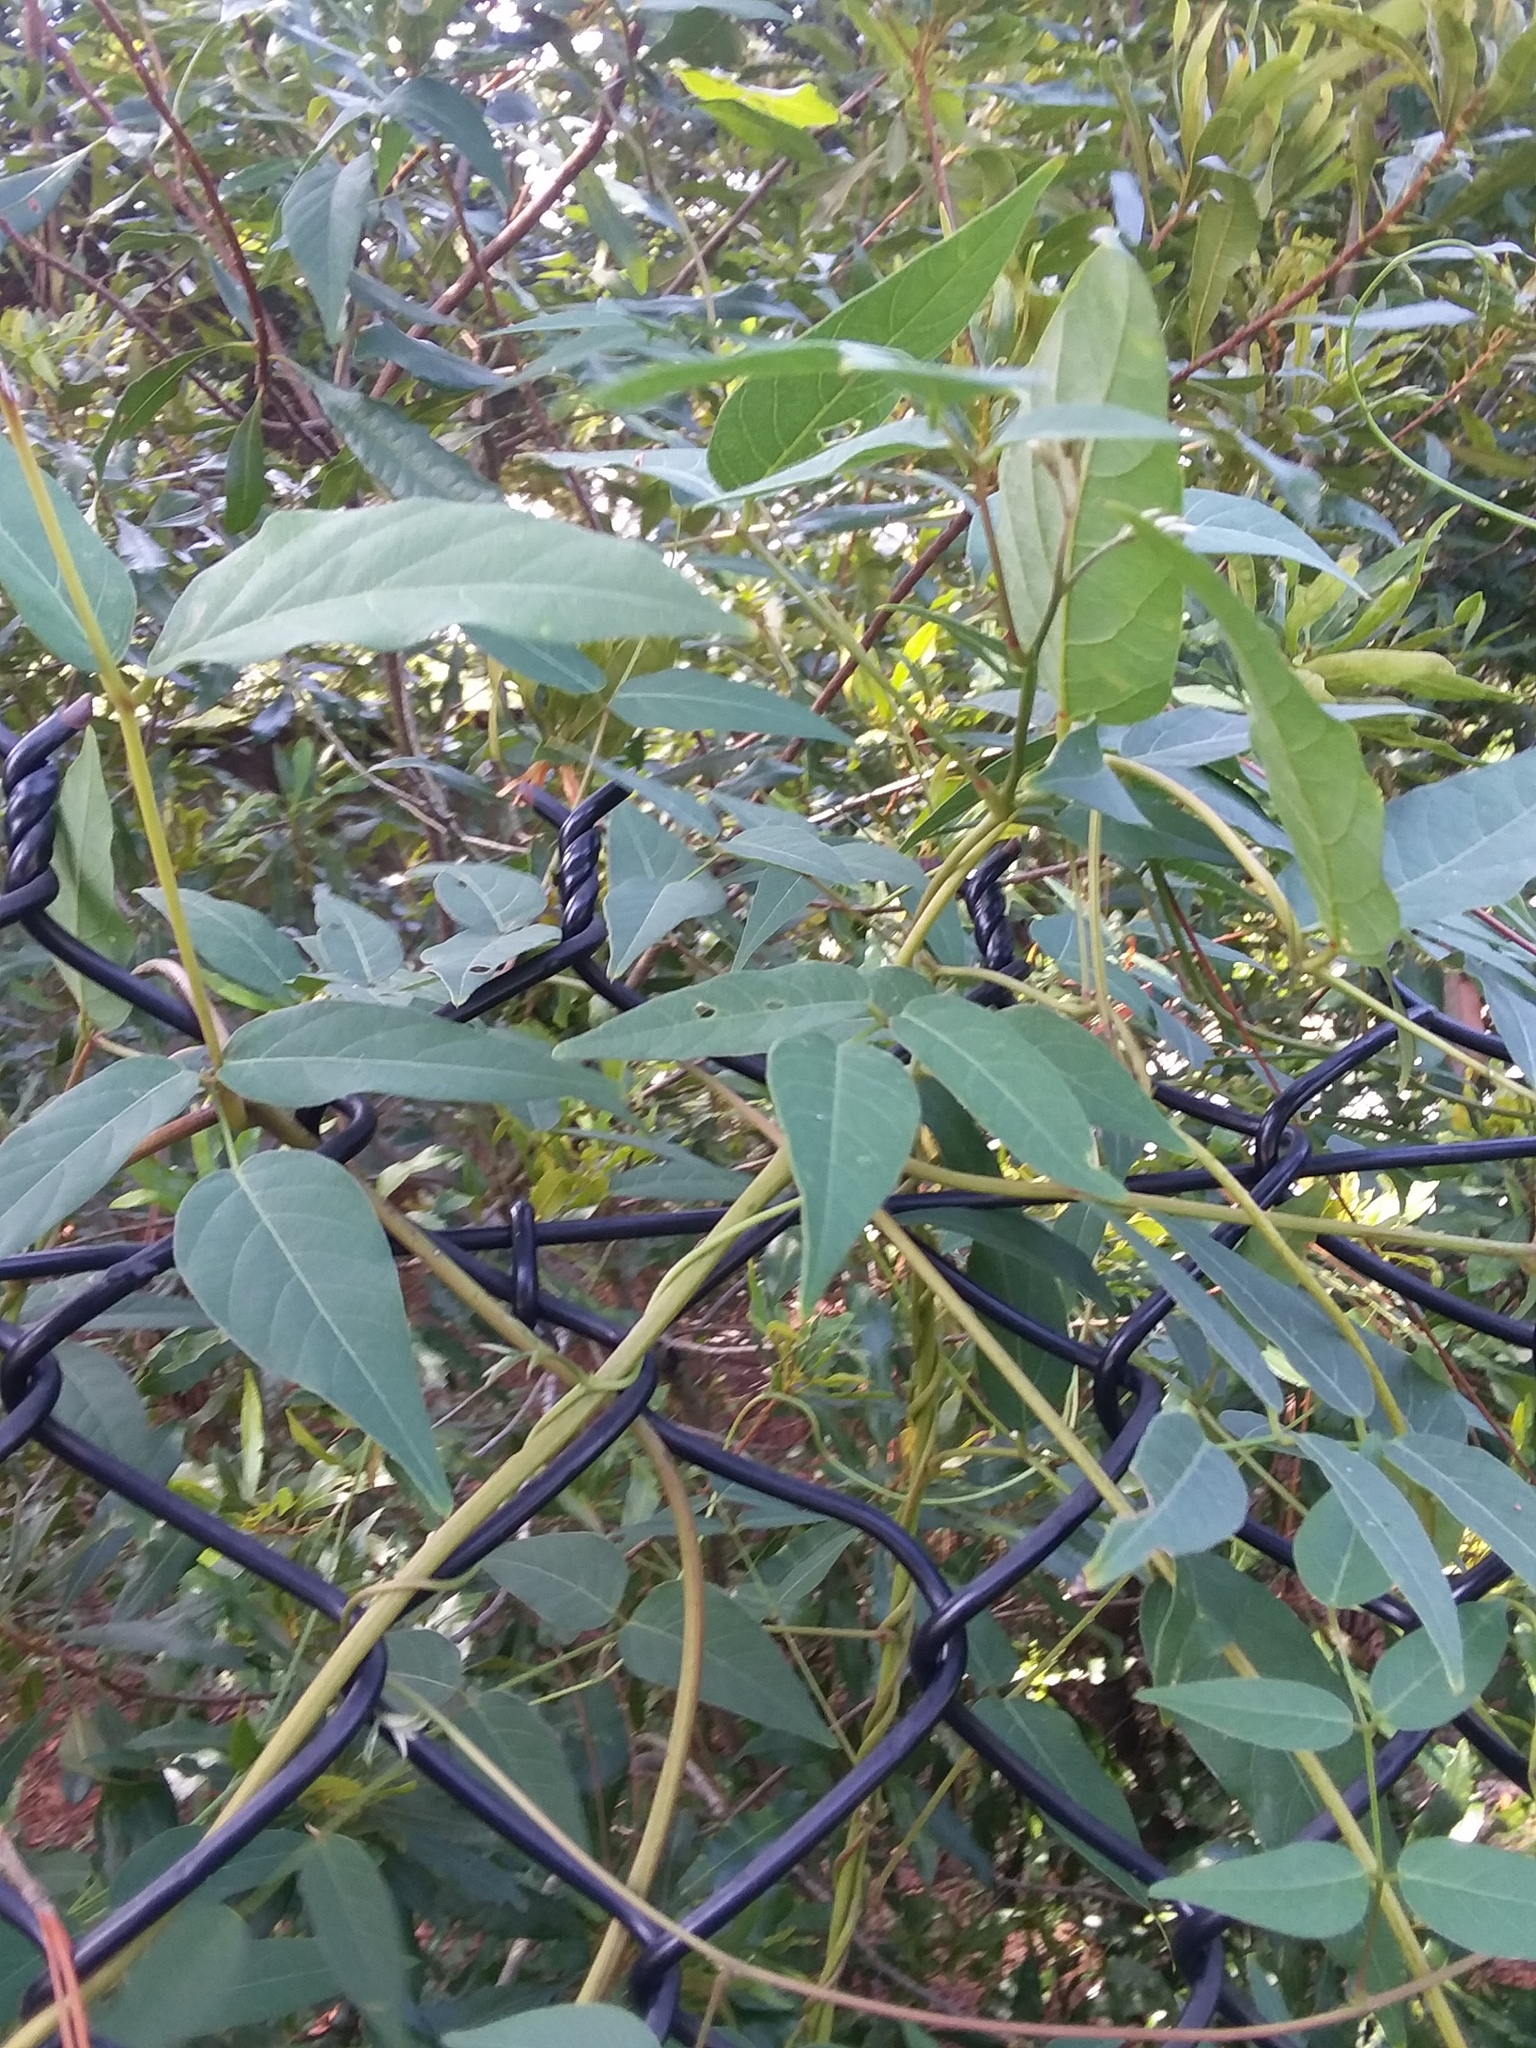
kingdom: Plantae
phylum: Tracheophyta
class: Magnoliopsida
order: Fabales
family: Fabaceae
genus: Apios
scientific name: Apios americana
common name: American potato-bean
